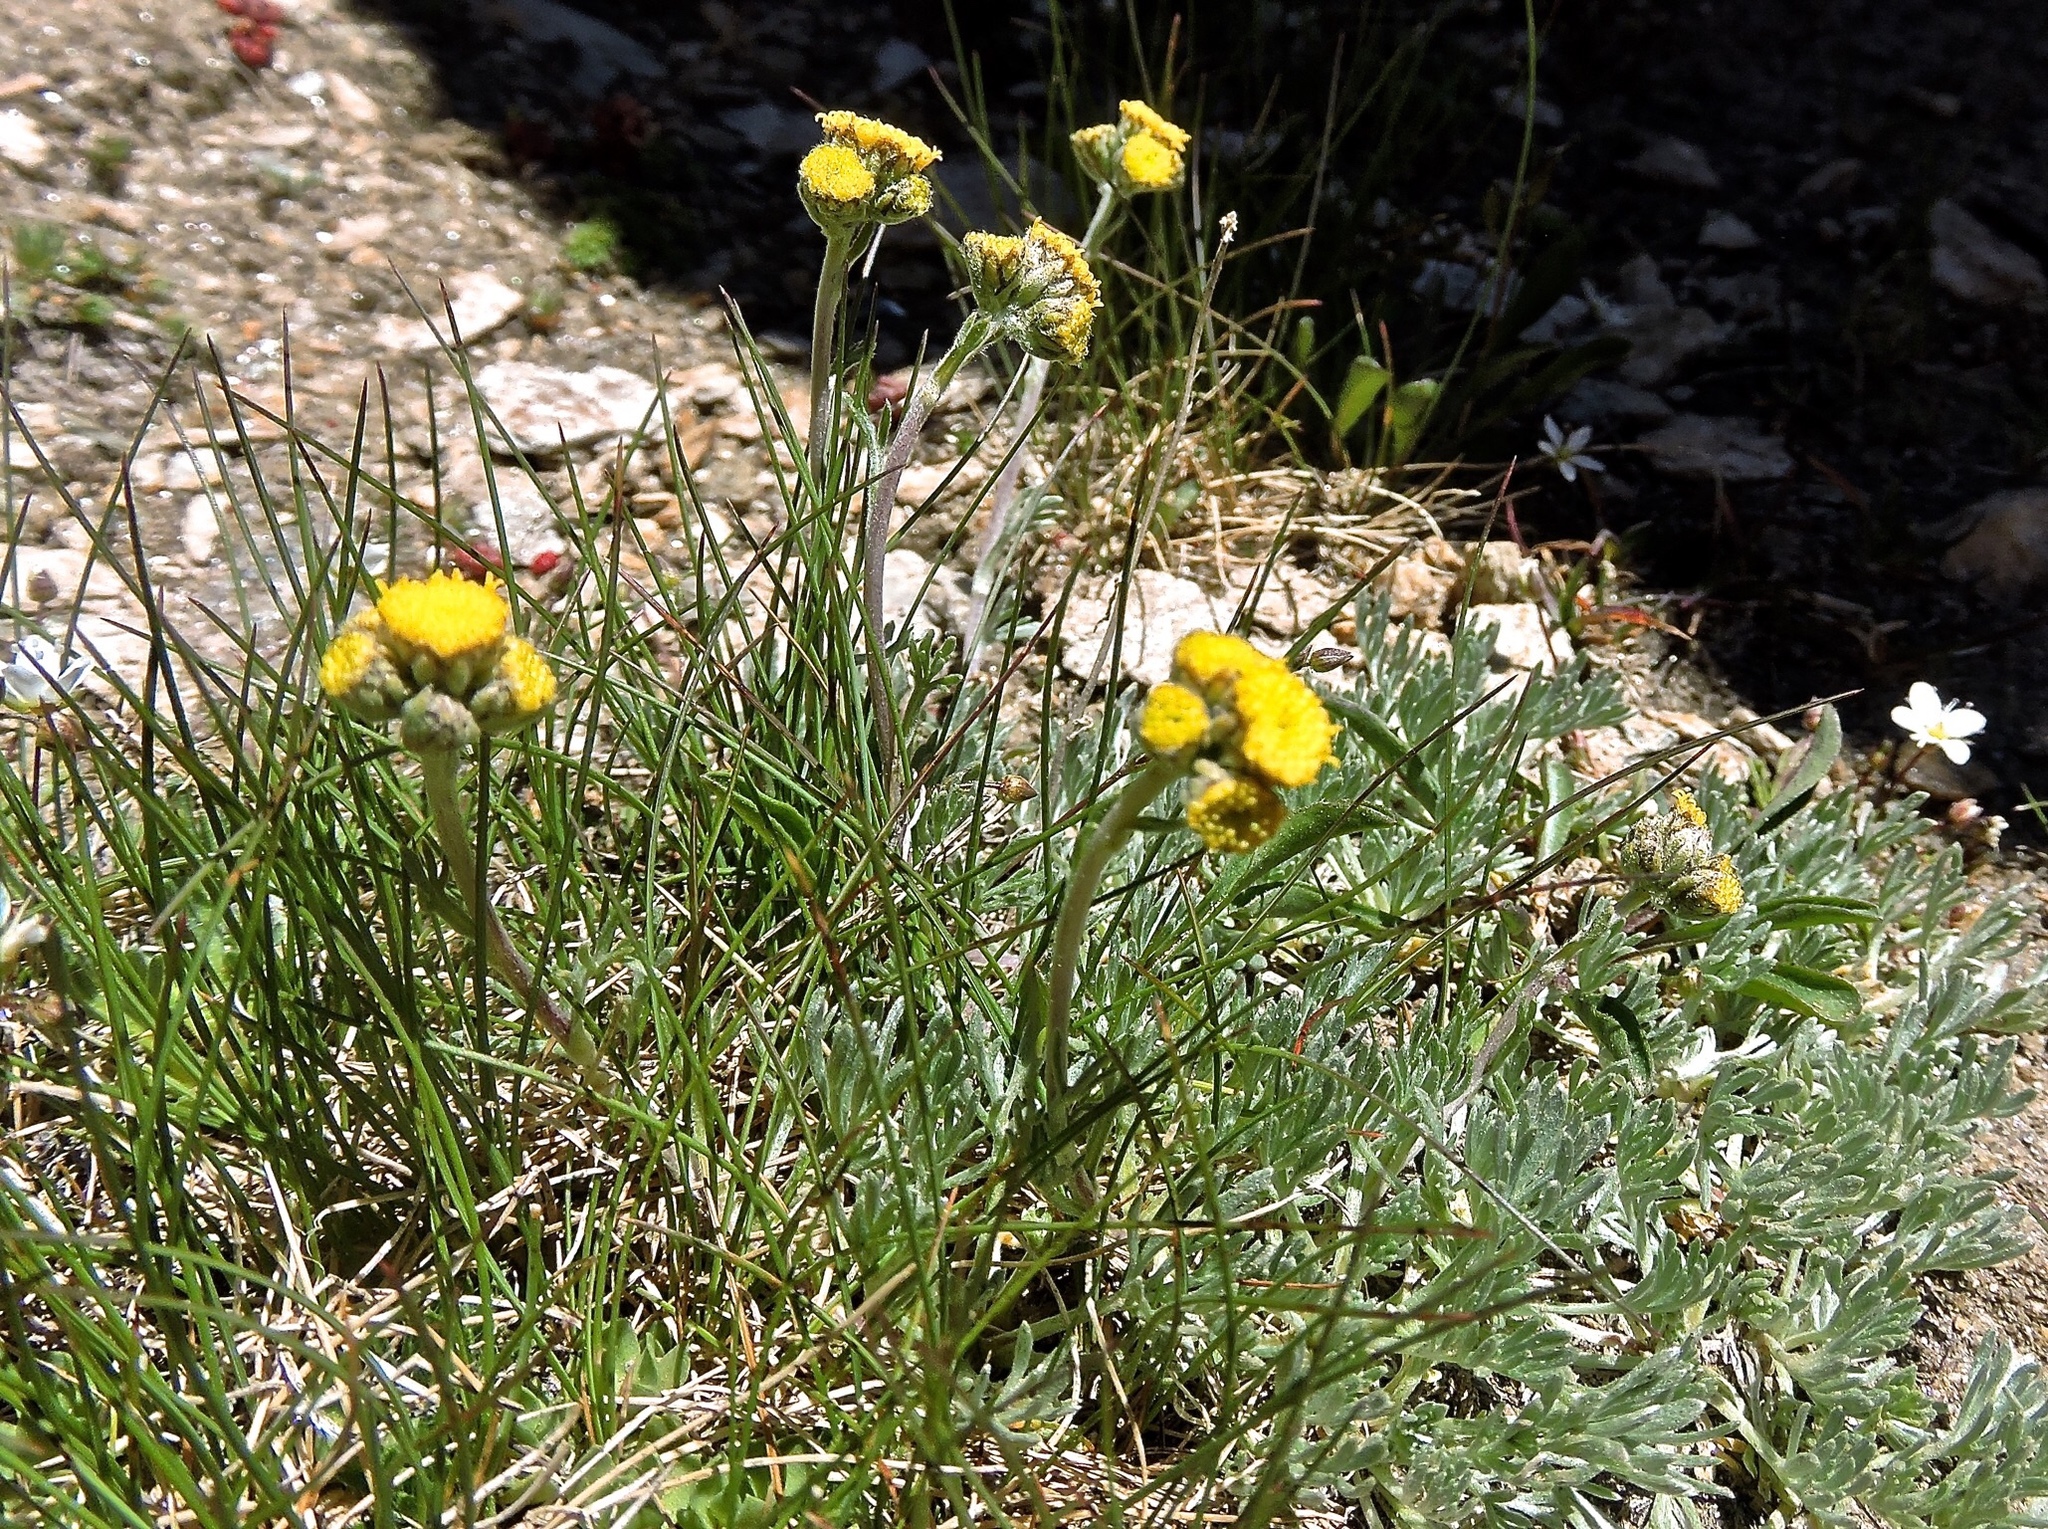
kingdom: Plantae
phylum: Tracheophyta
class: Magnoliopsida
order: Asterales
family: Asteraceae
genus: Artemisia
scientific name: Artemisia glacialis
